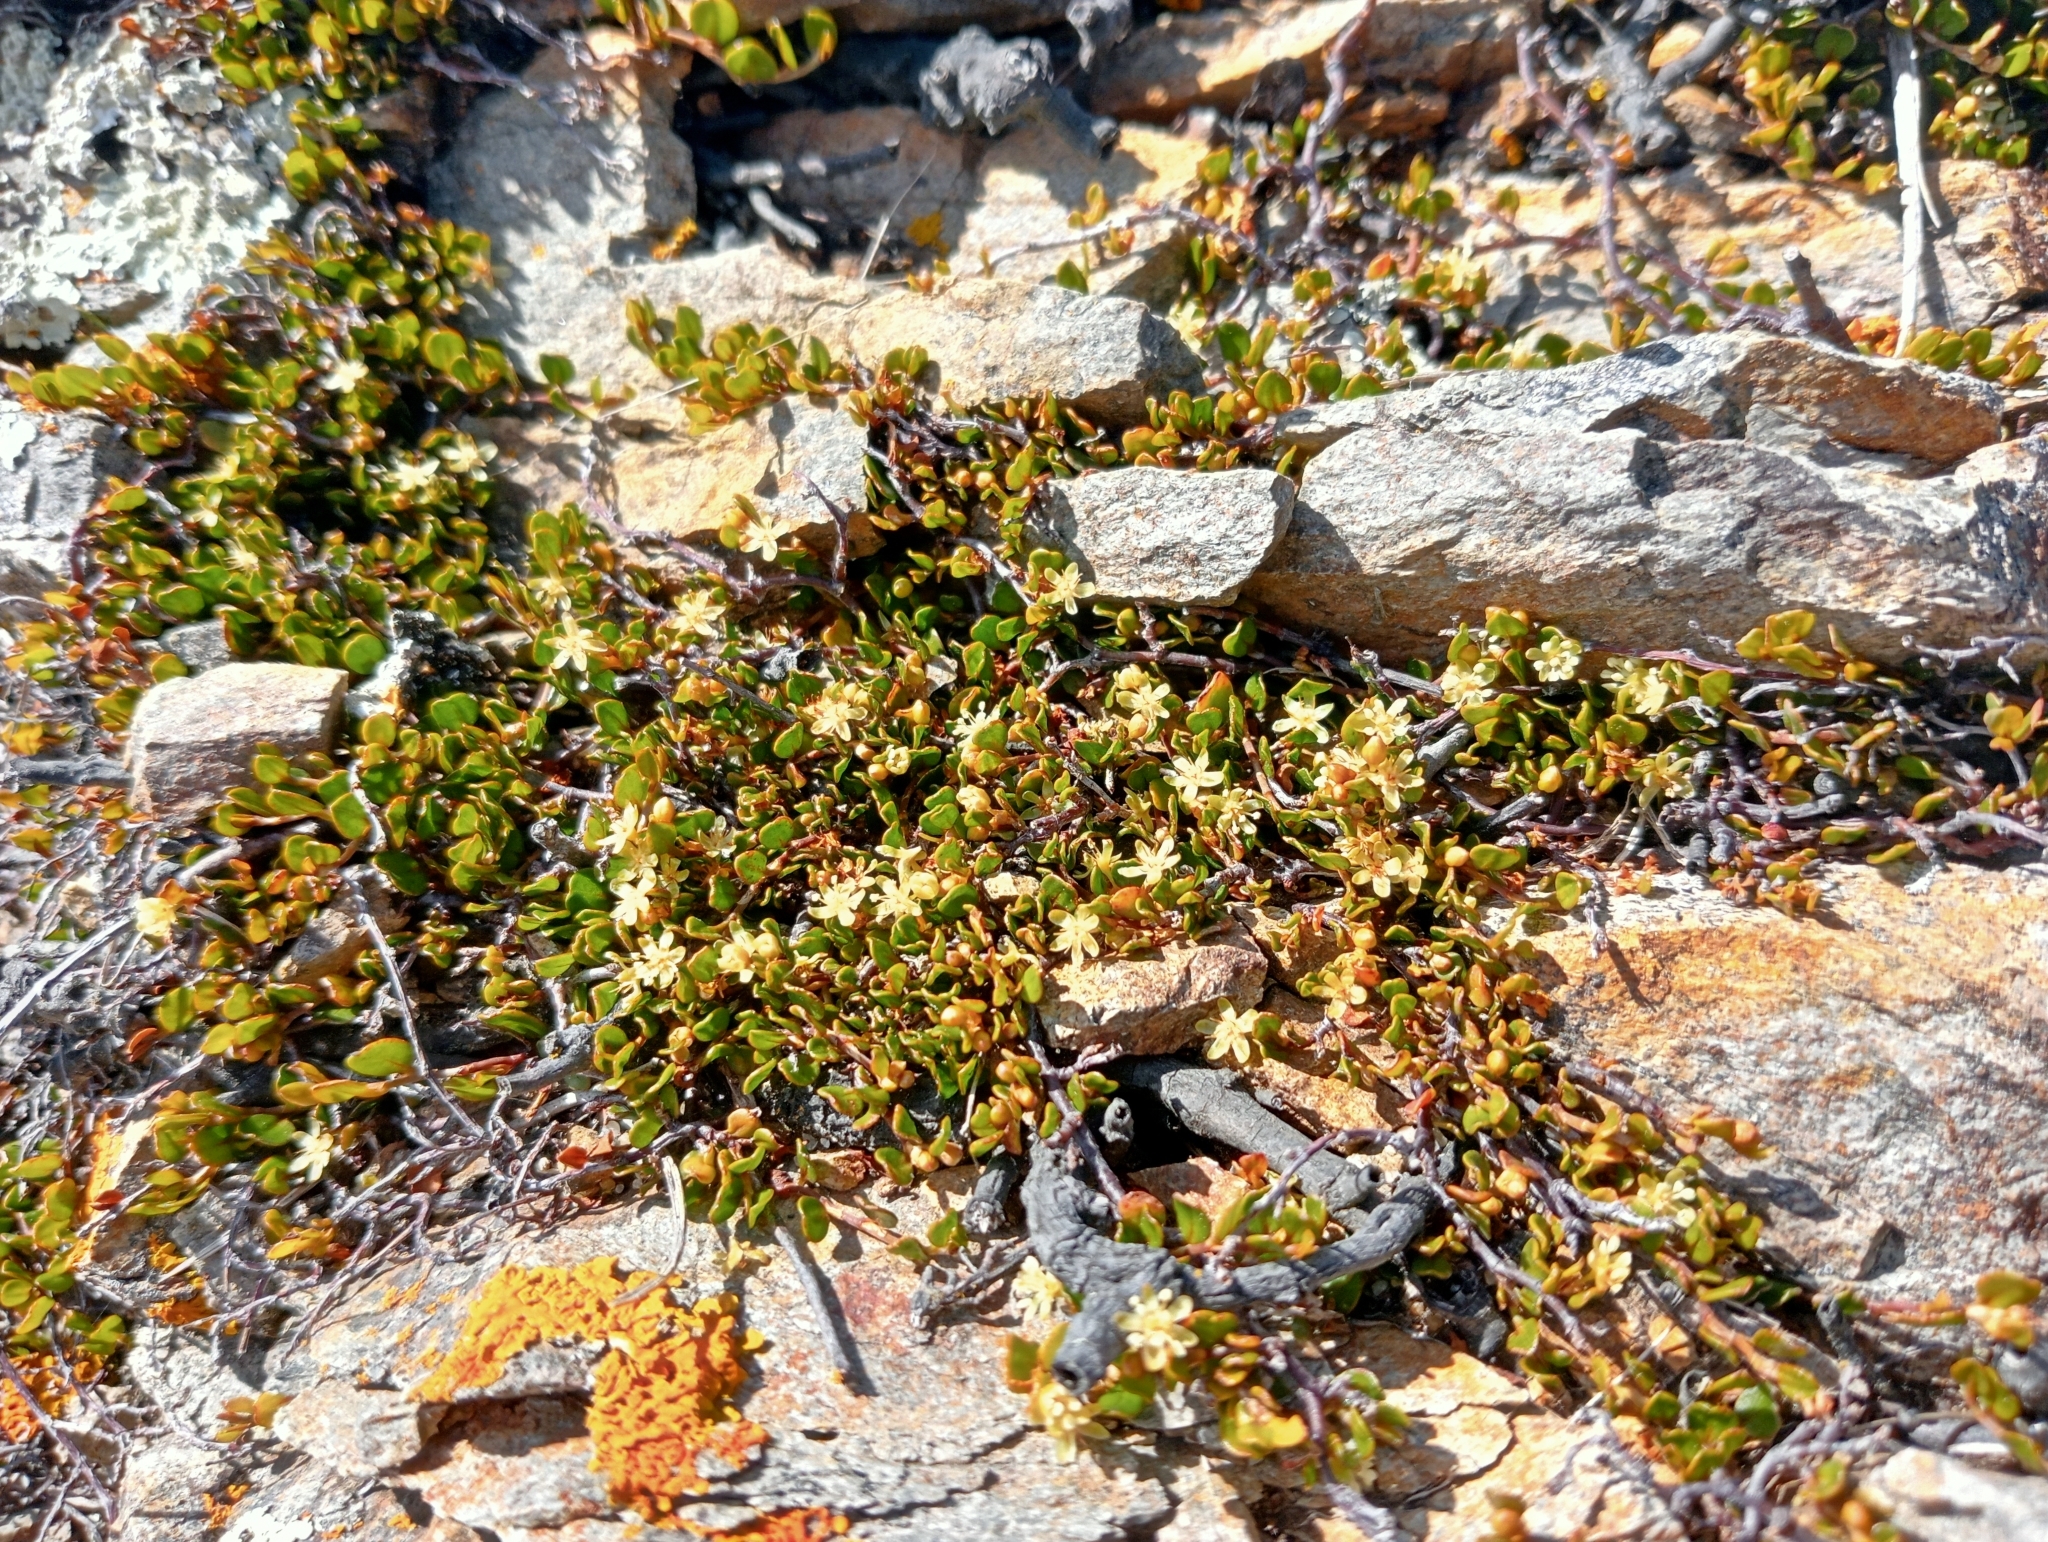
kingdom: Plantae
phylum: Tracheophyta
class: Magnoliopsida
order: Caryophyllales
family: Polygonaceae
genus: Muehlenbeckia
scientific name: Muehlenbeckia axillaris
